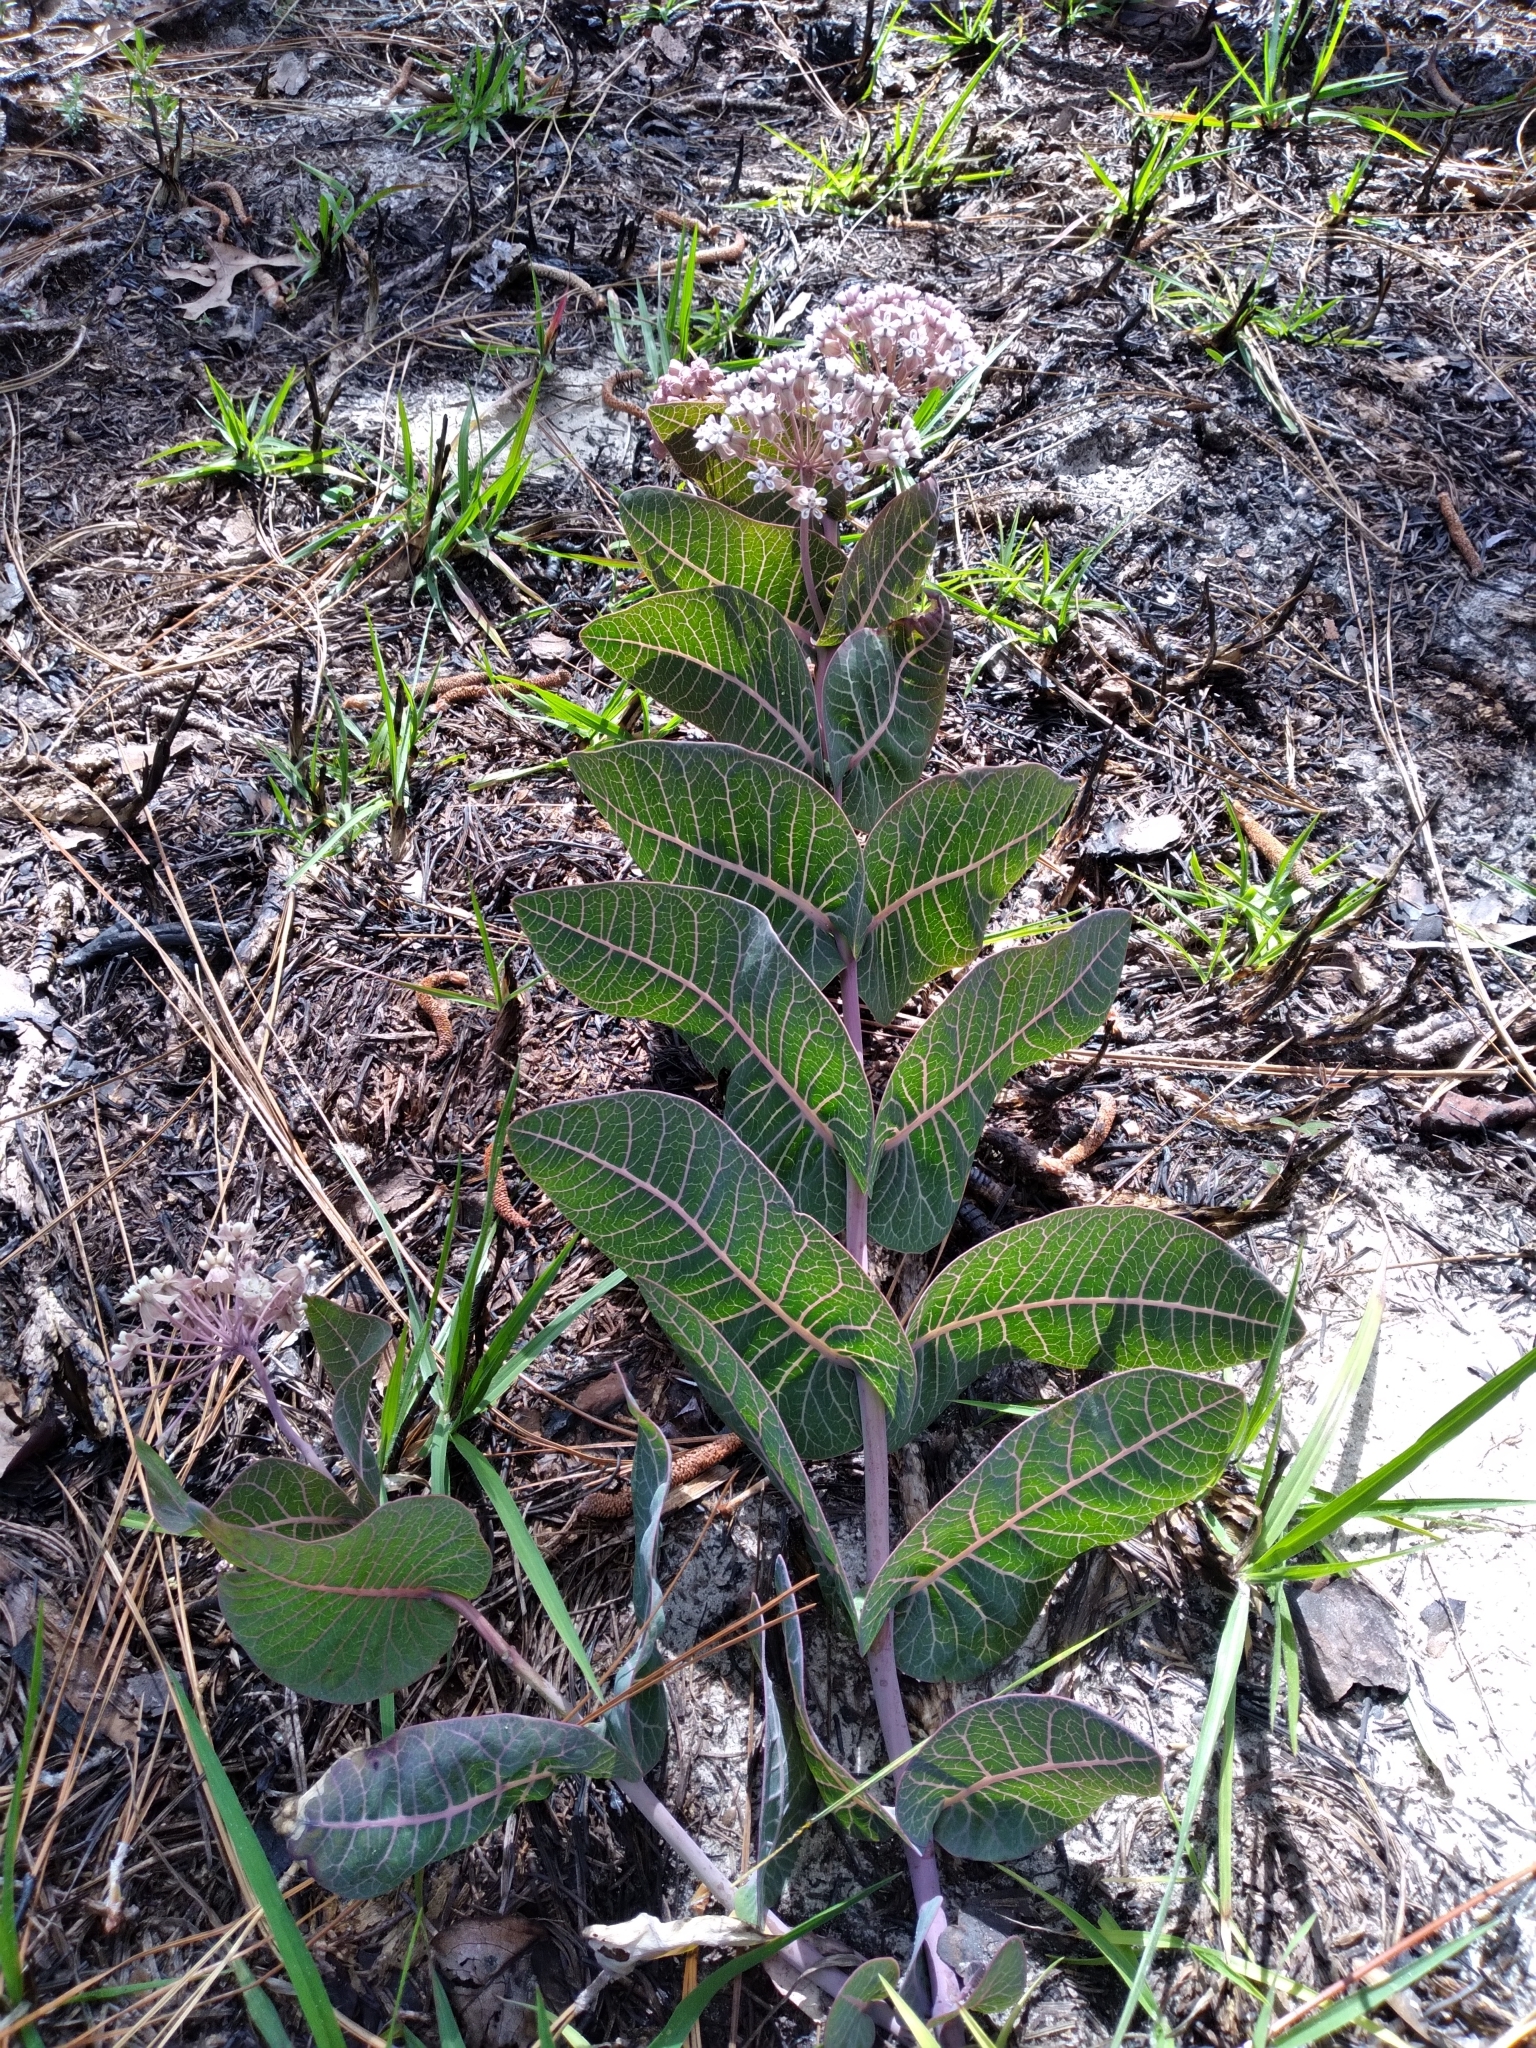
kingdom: Plantae
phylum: Tracheophyta
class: Magnoliopsida
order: Gentianales
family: Apocynaceae
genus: Asclepias
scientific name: Asclepias humistrata
